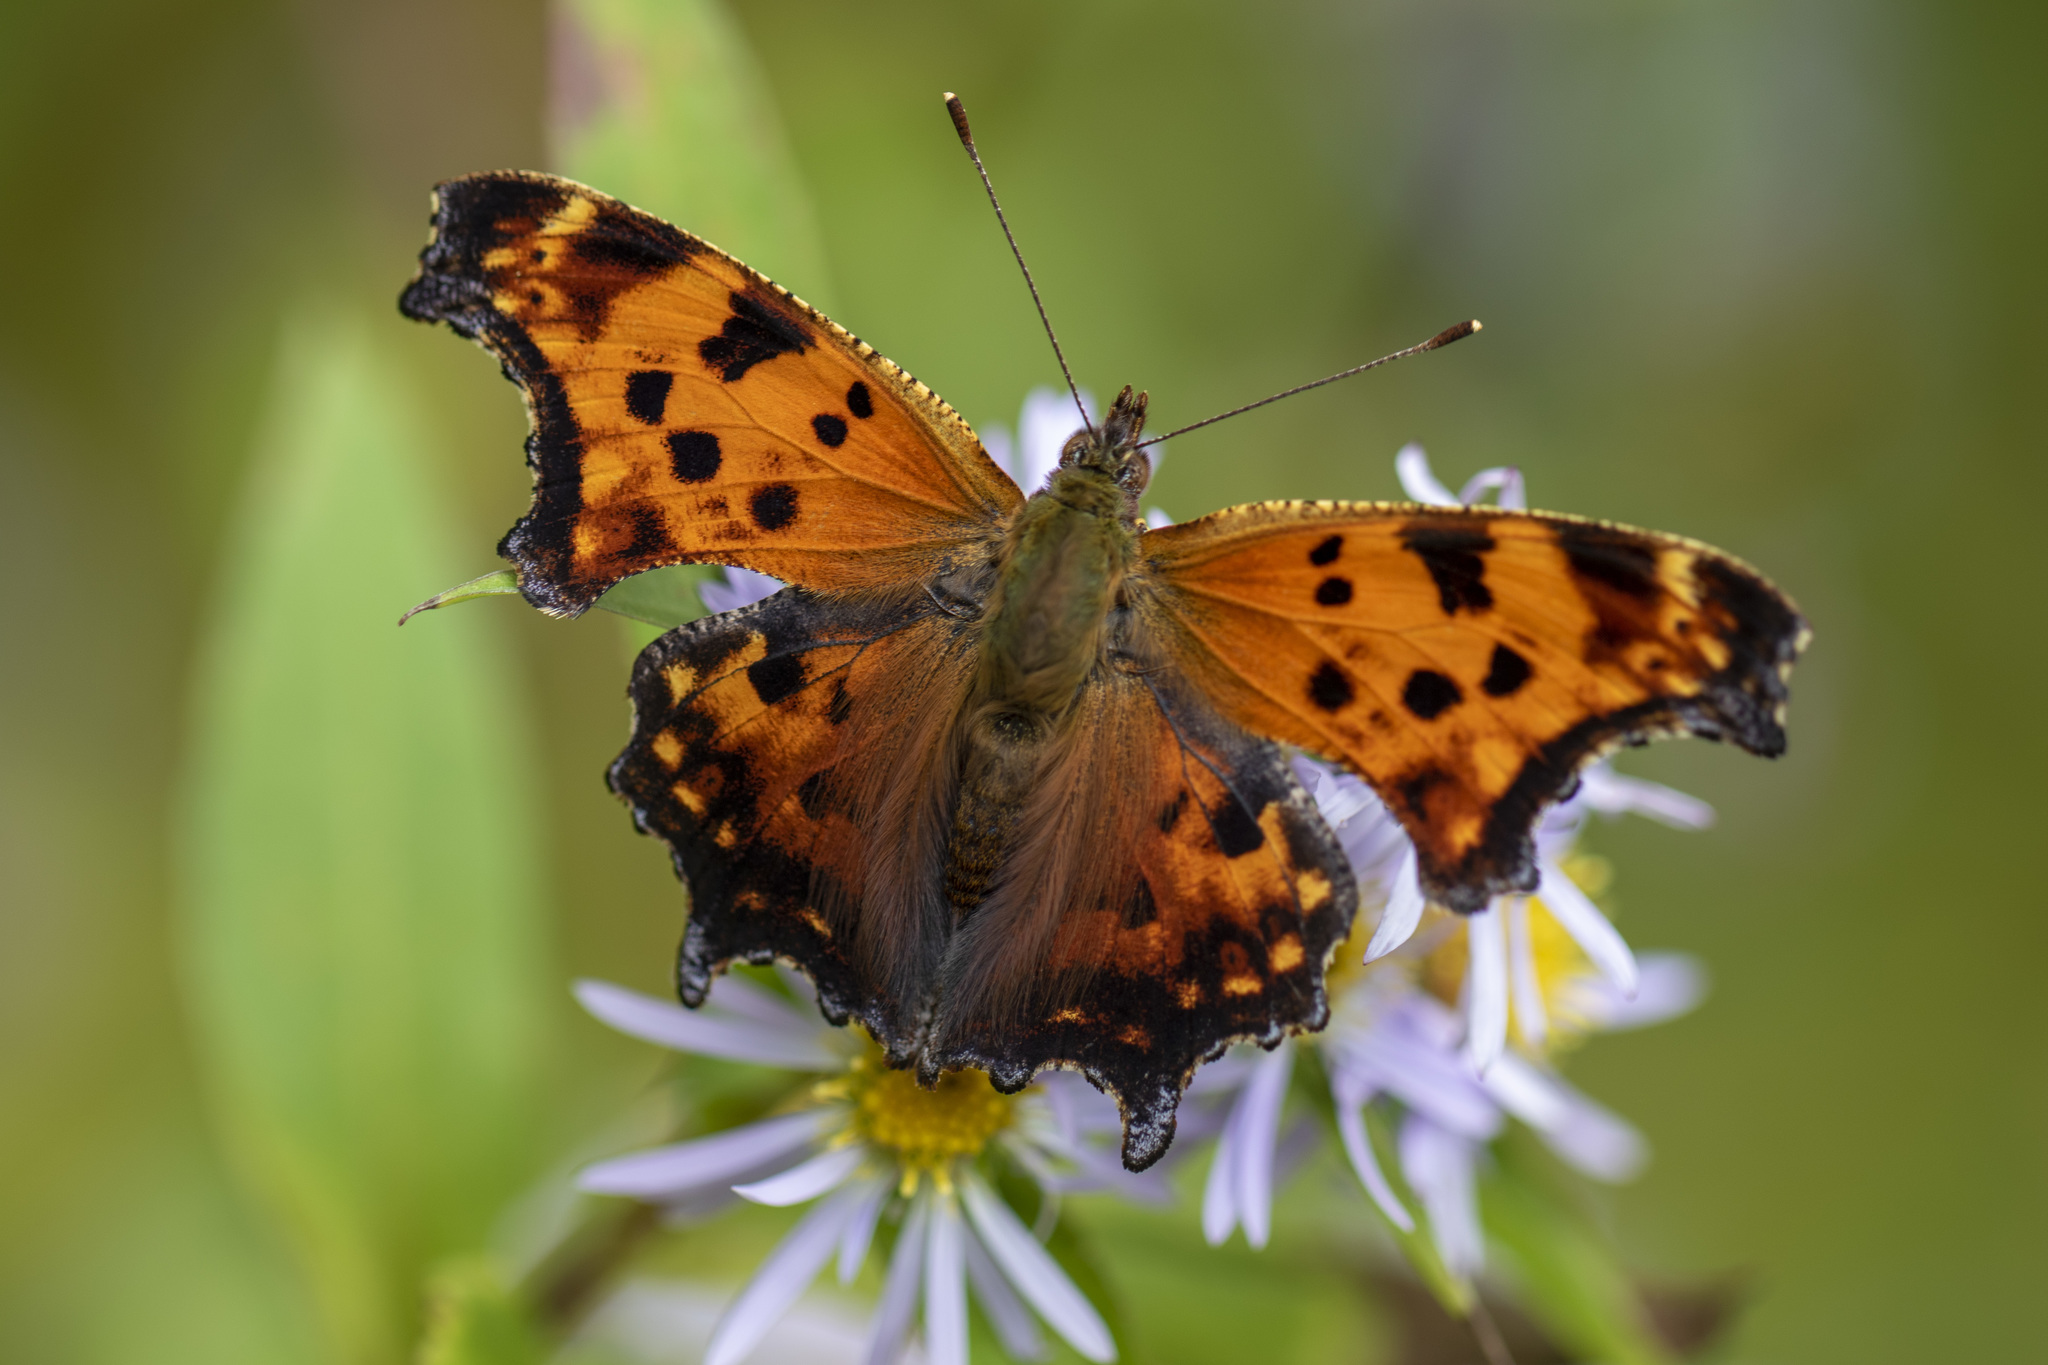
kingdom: Animalia
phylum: Arthropoda
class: Insecta
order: Lepidoptera
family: Nymphalidae
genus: Polygonia
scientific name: Polygonia comma
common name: Eastern comma
